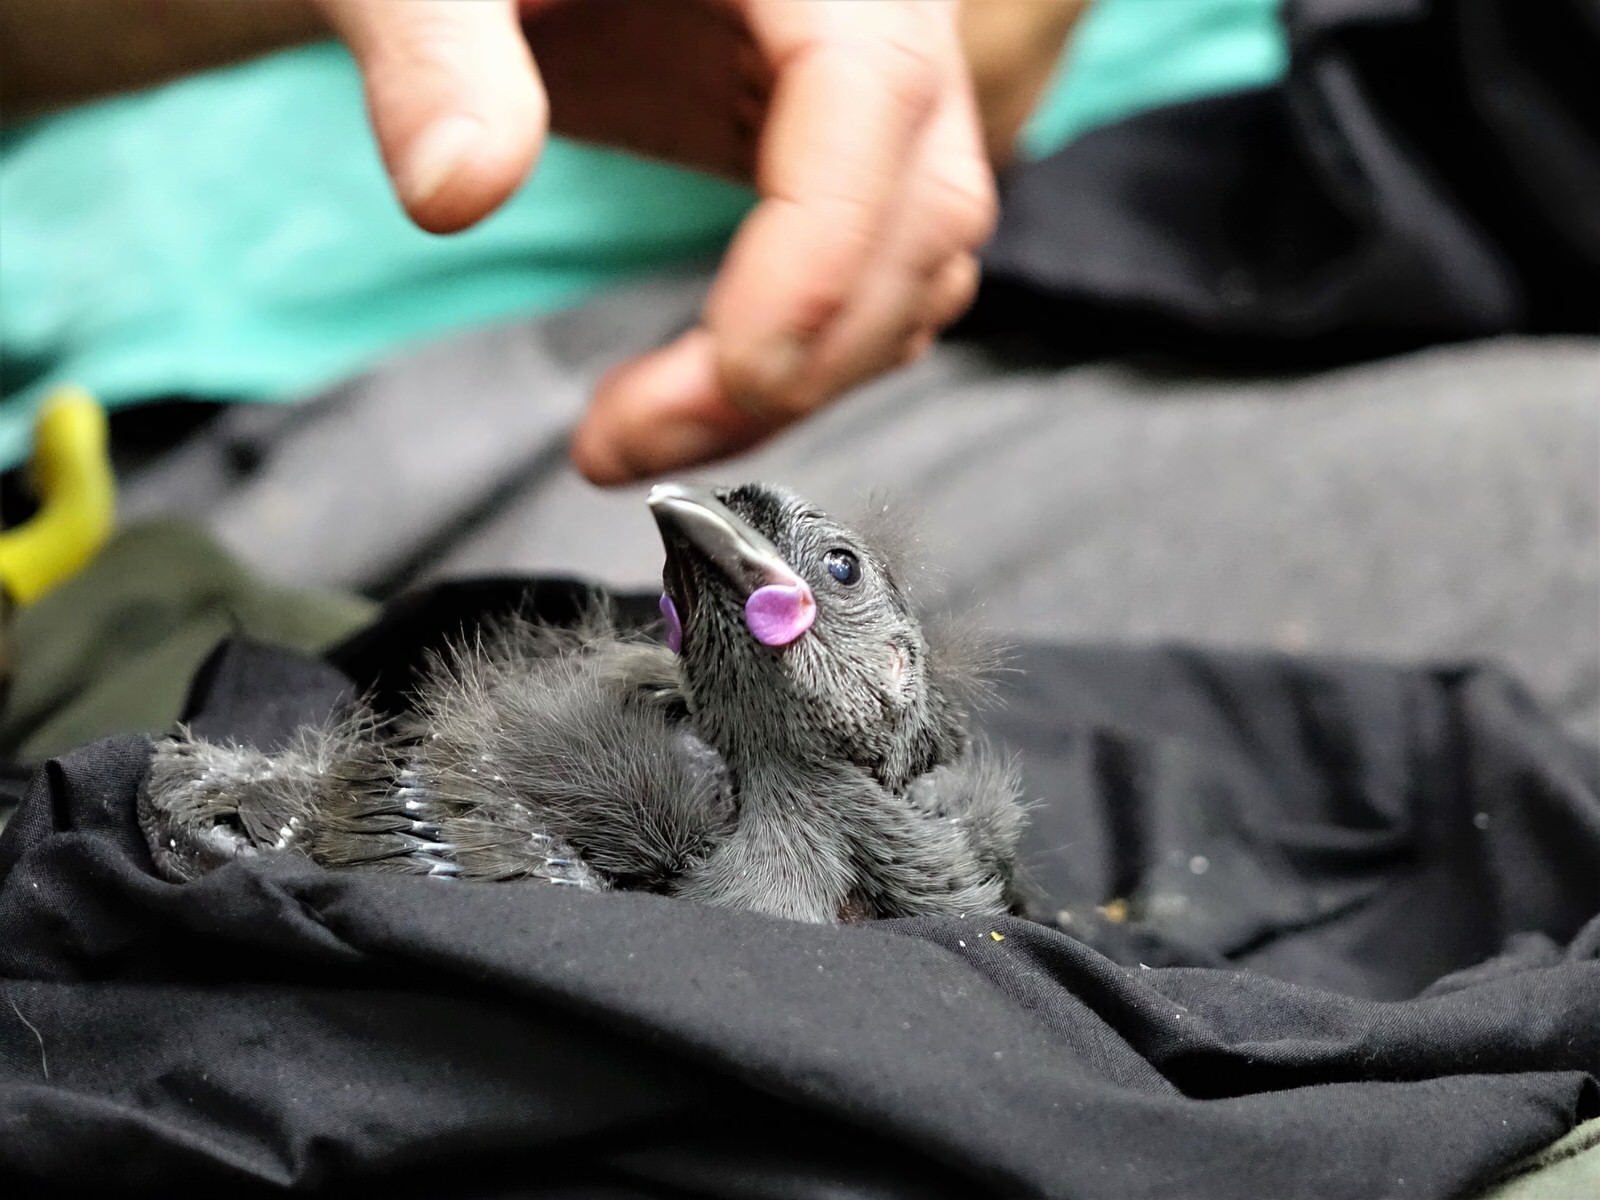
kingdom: Animalia
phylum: Chordata
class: Aves
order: Passeriformes
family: Callaeatidae
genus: Callaeas
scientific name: Callaeas cinereus
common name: South island kokako
